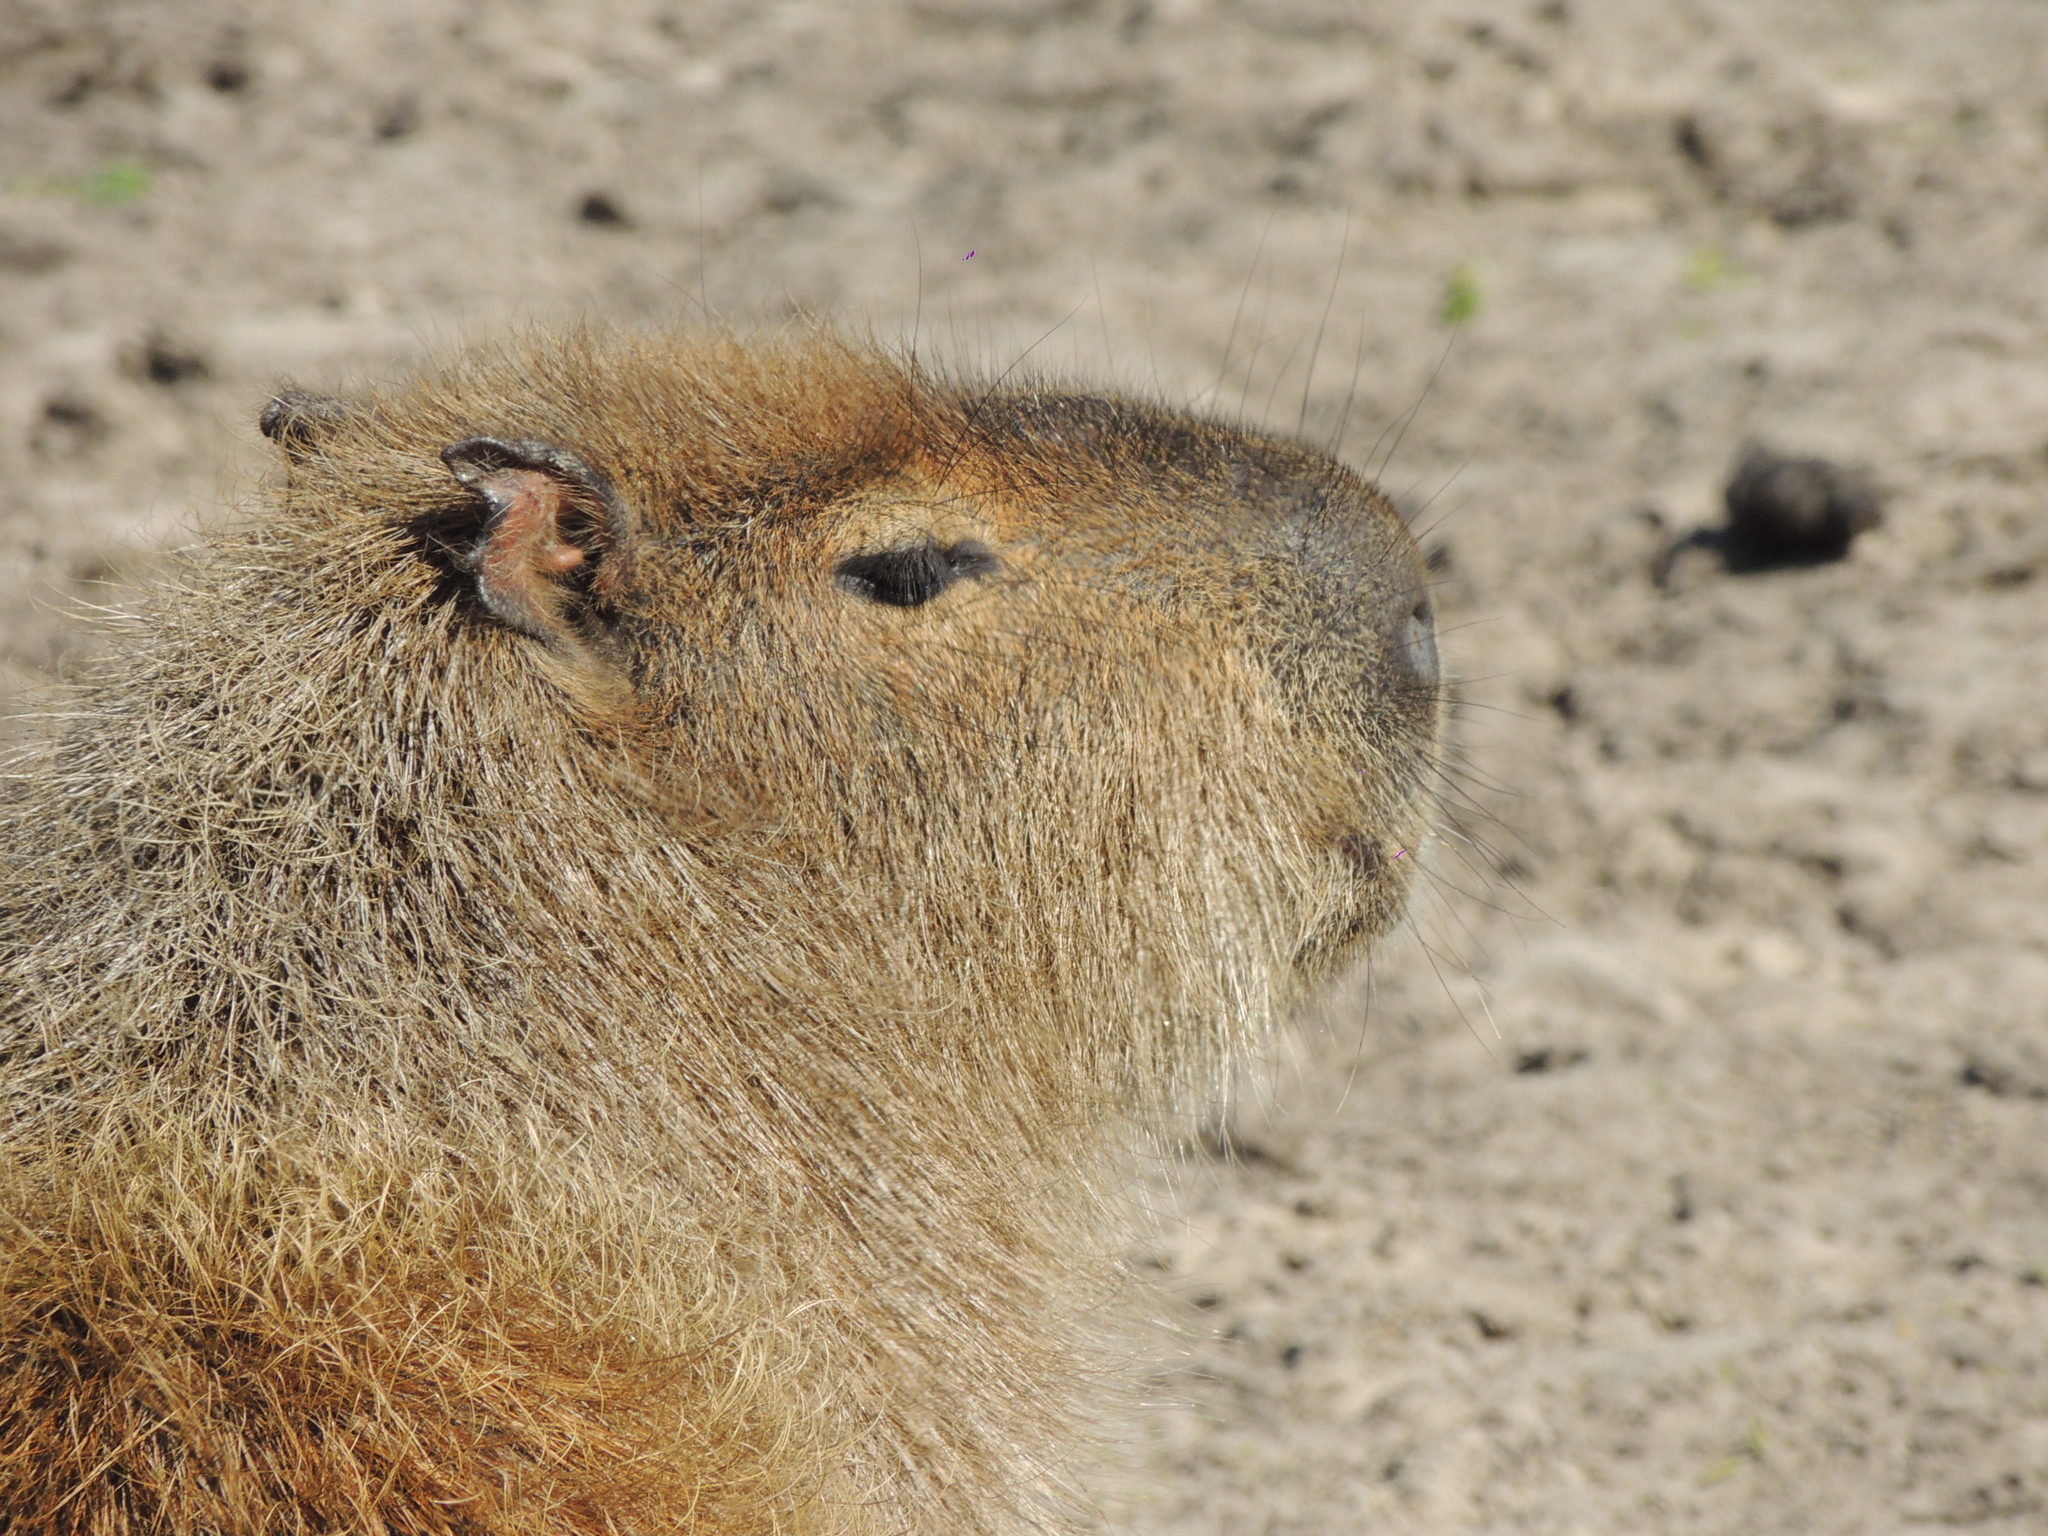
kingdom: Animalia
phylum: Chordata
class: Mammalia
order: Rodentia
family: Caviidae
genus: Hydrochoerus
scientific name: Hydrochoerus hydrochaeris
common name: Capybara
